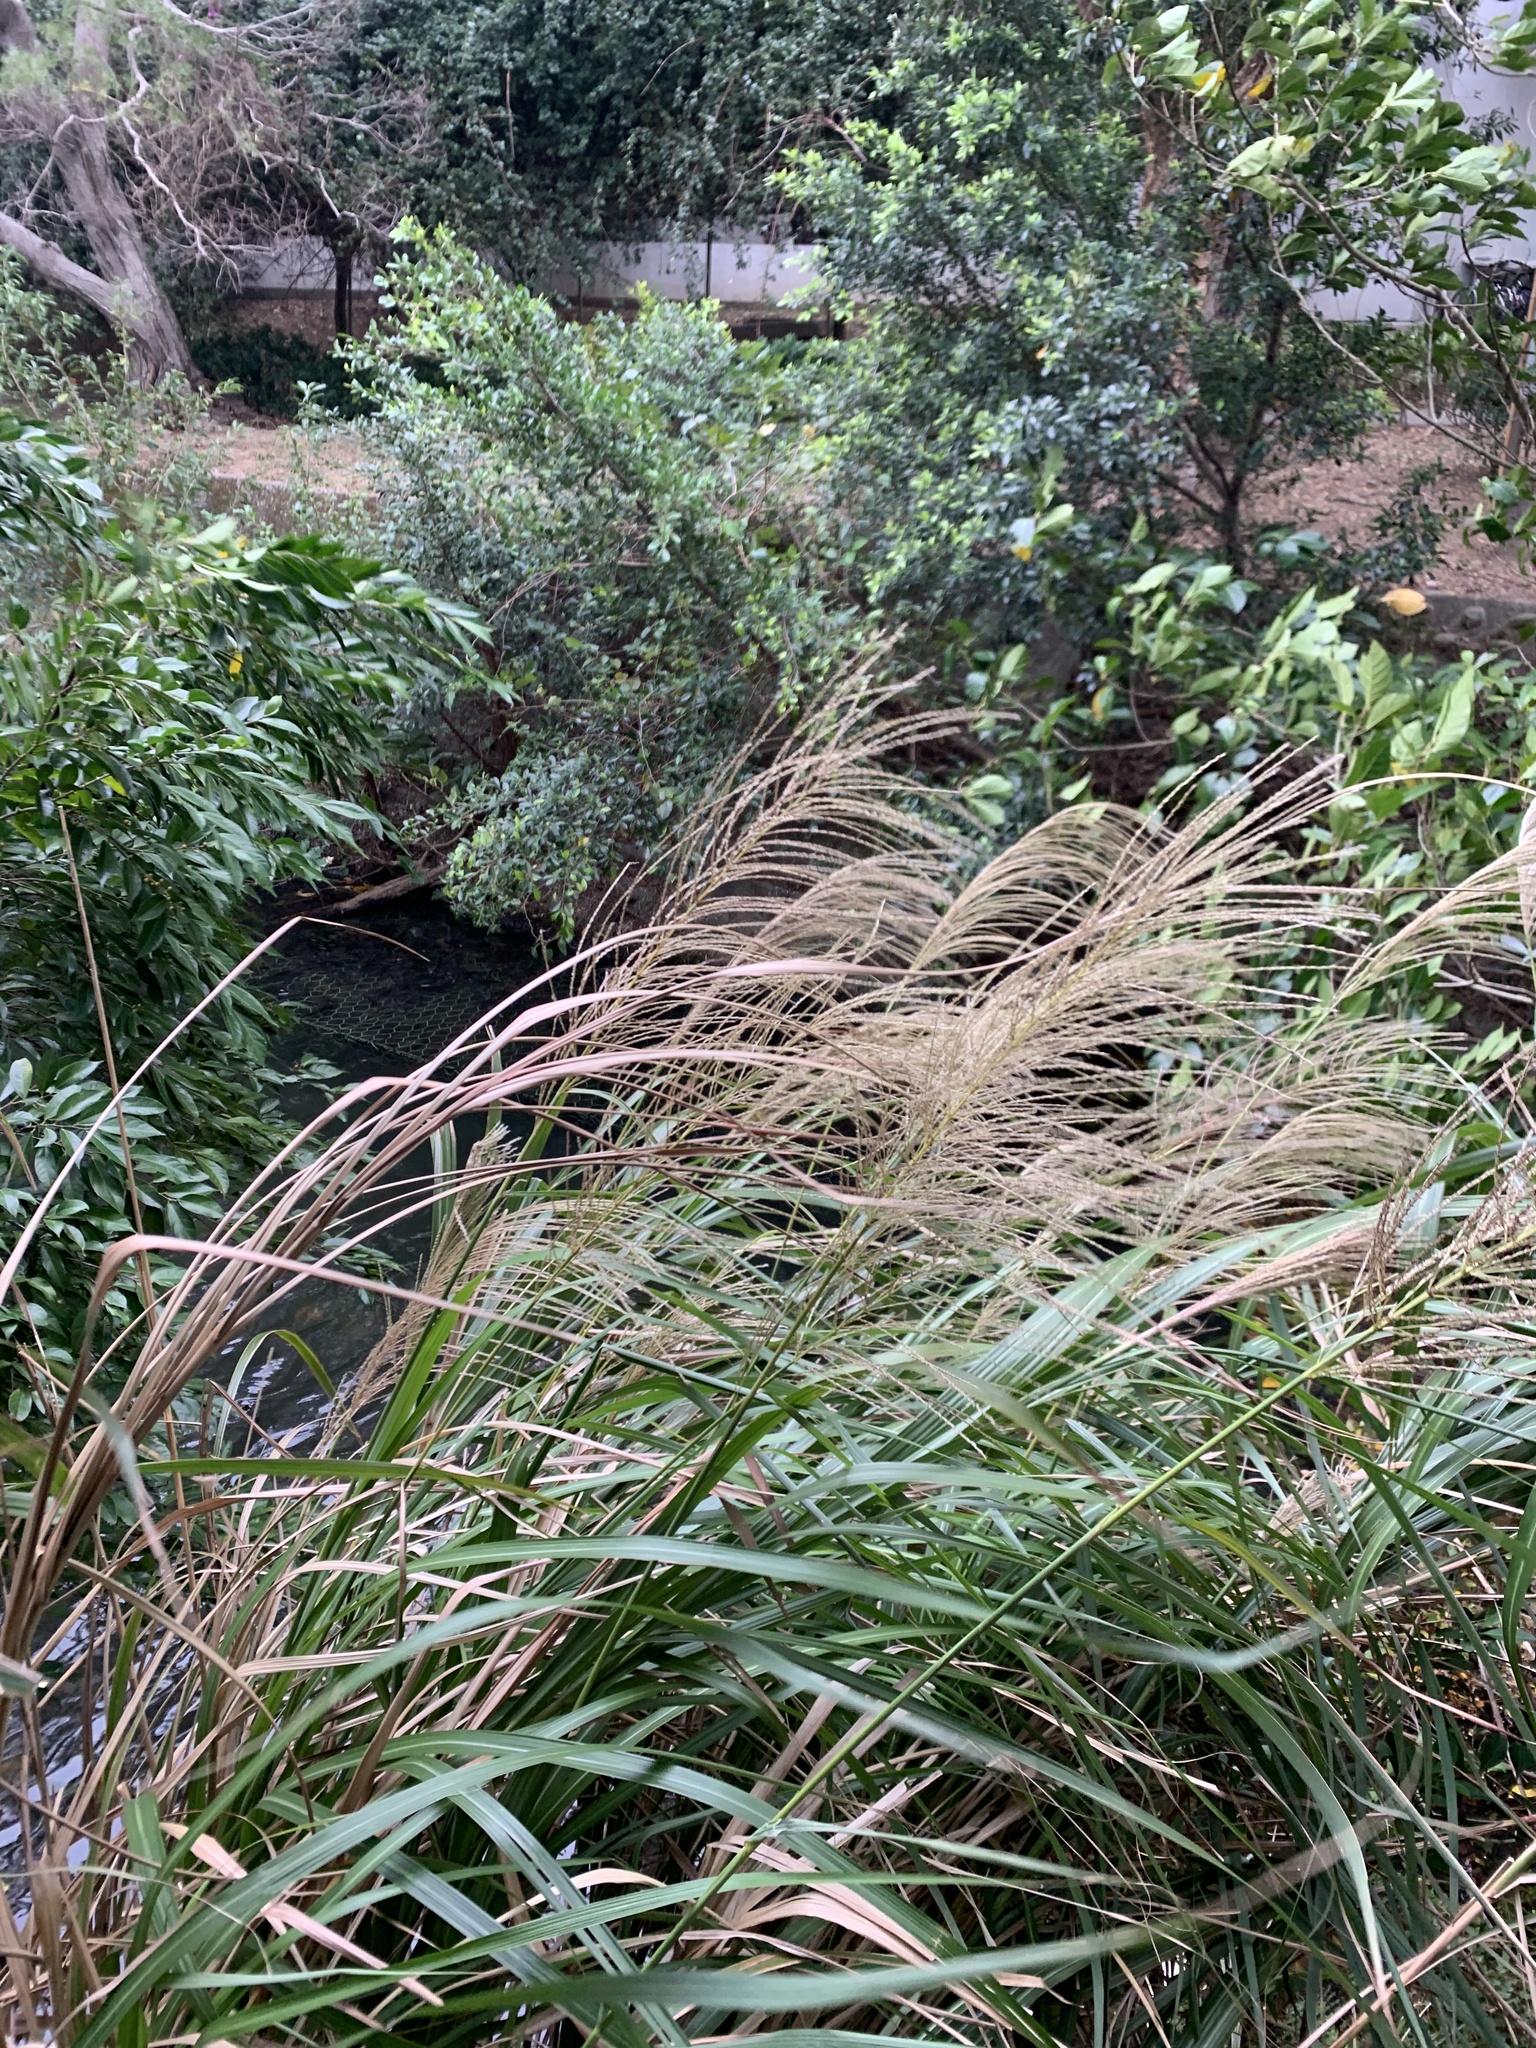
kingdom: Plantae
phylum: Tracheophyta
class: Liliopsida
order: Poales
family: Poaceae
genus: Miscanthus
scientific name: Miscanthus sinensis
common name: Chinese silvergrass
